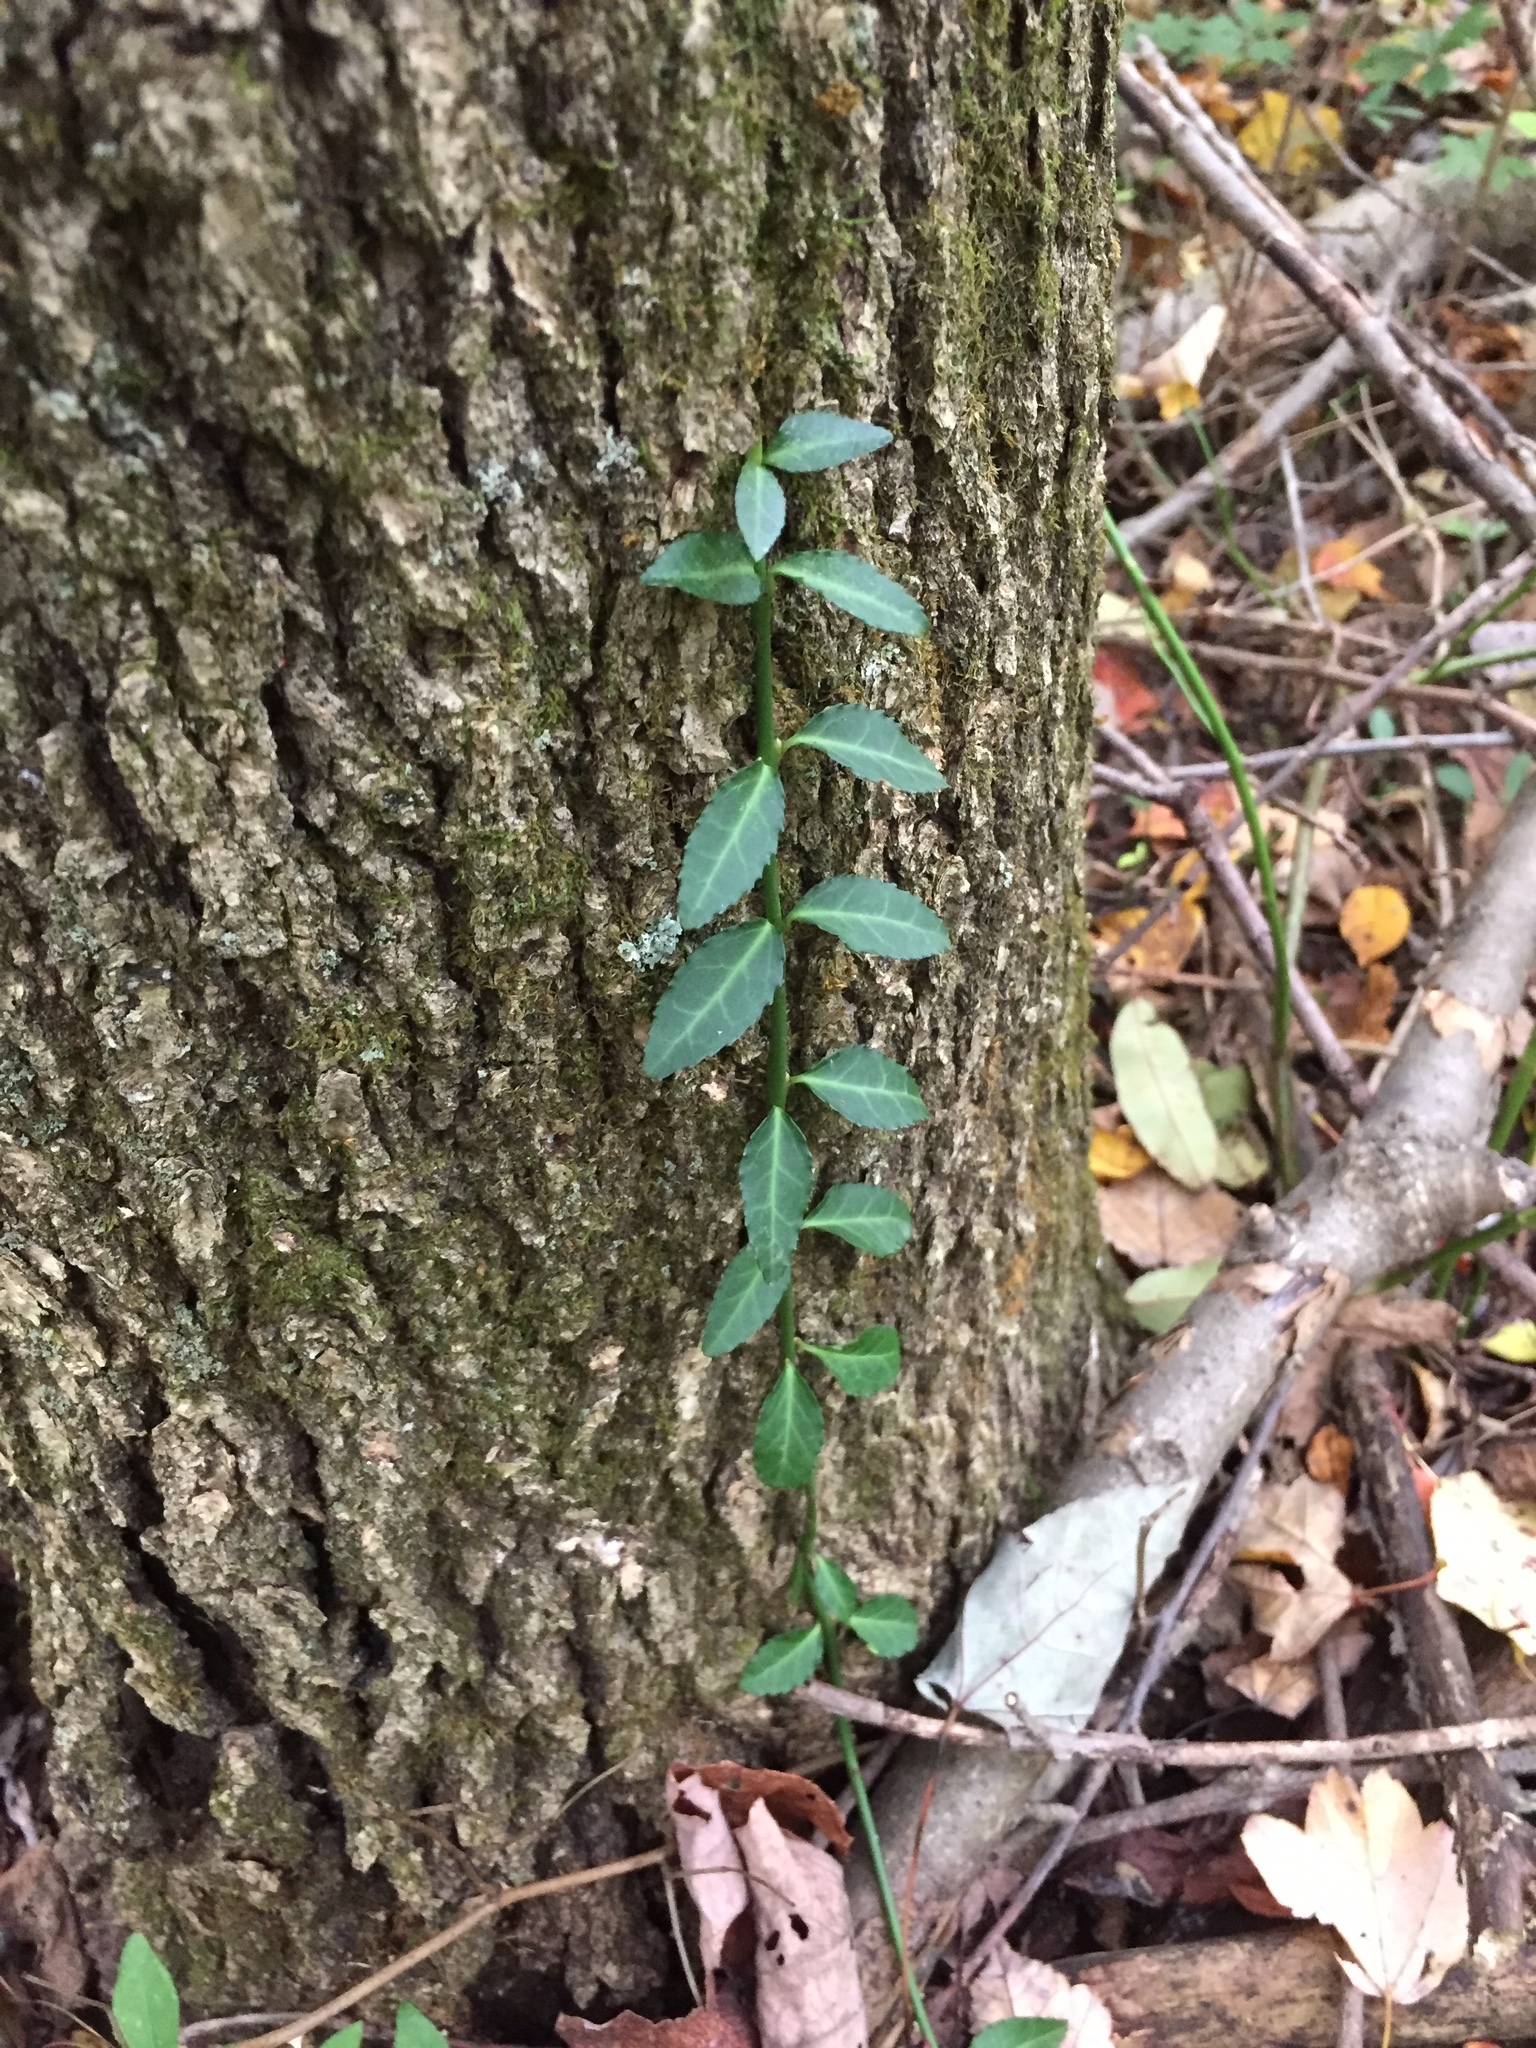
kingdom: Plantae
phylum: Tracheophyta
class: Magnoliopsida
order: Celastrales
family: Celastraceae
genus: Euonymus
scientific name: Euonymus fortunei
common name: Climbing euonymus
